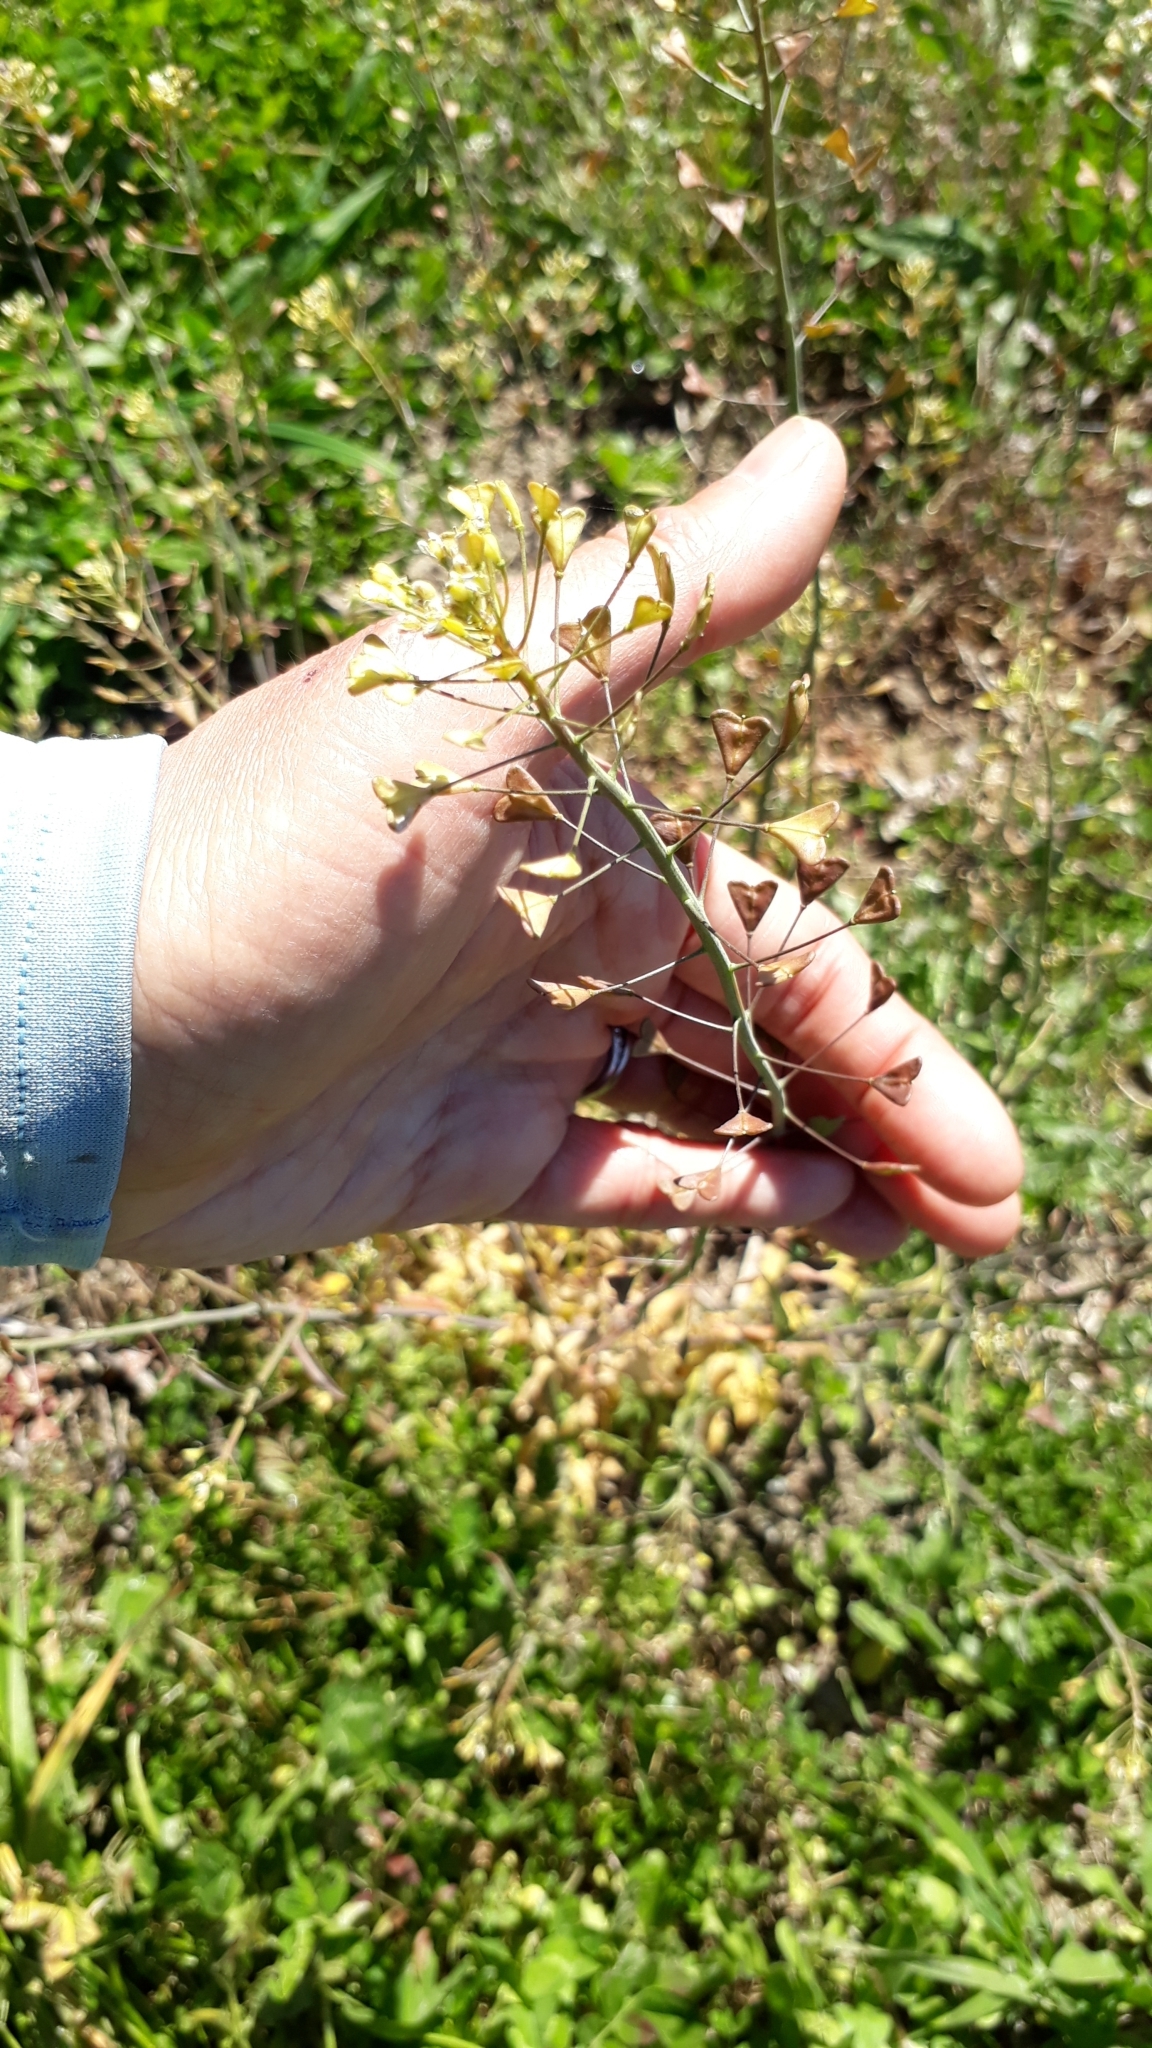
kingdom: Plantae
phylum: Tracheophyta
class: Magnoliopsida
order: Brassicales
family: Brassicaceae
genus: Capsella
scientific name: Capsella bursa-pastoris
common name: Shepherd's purse
